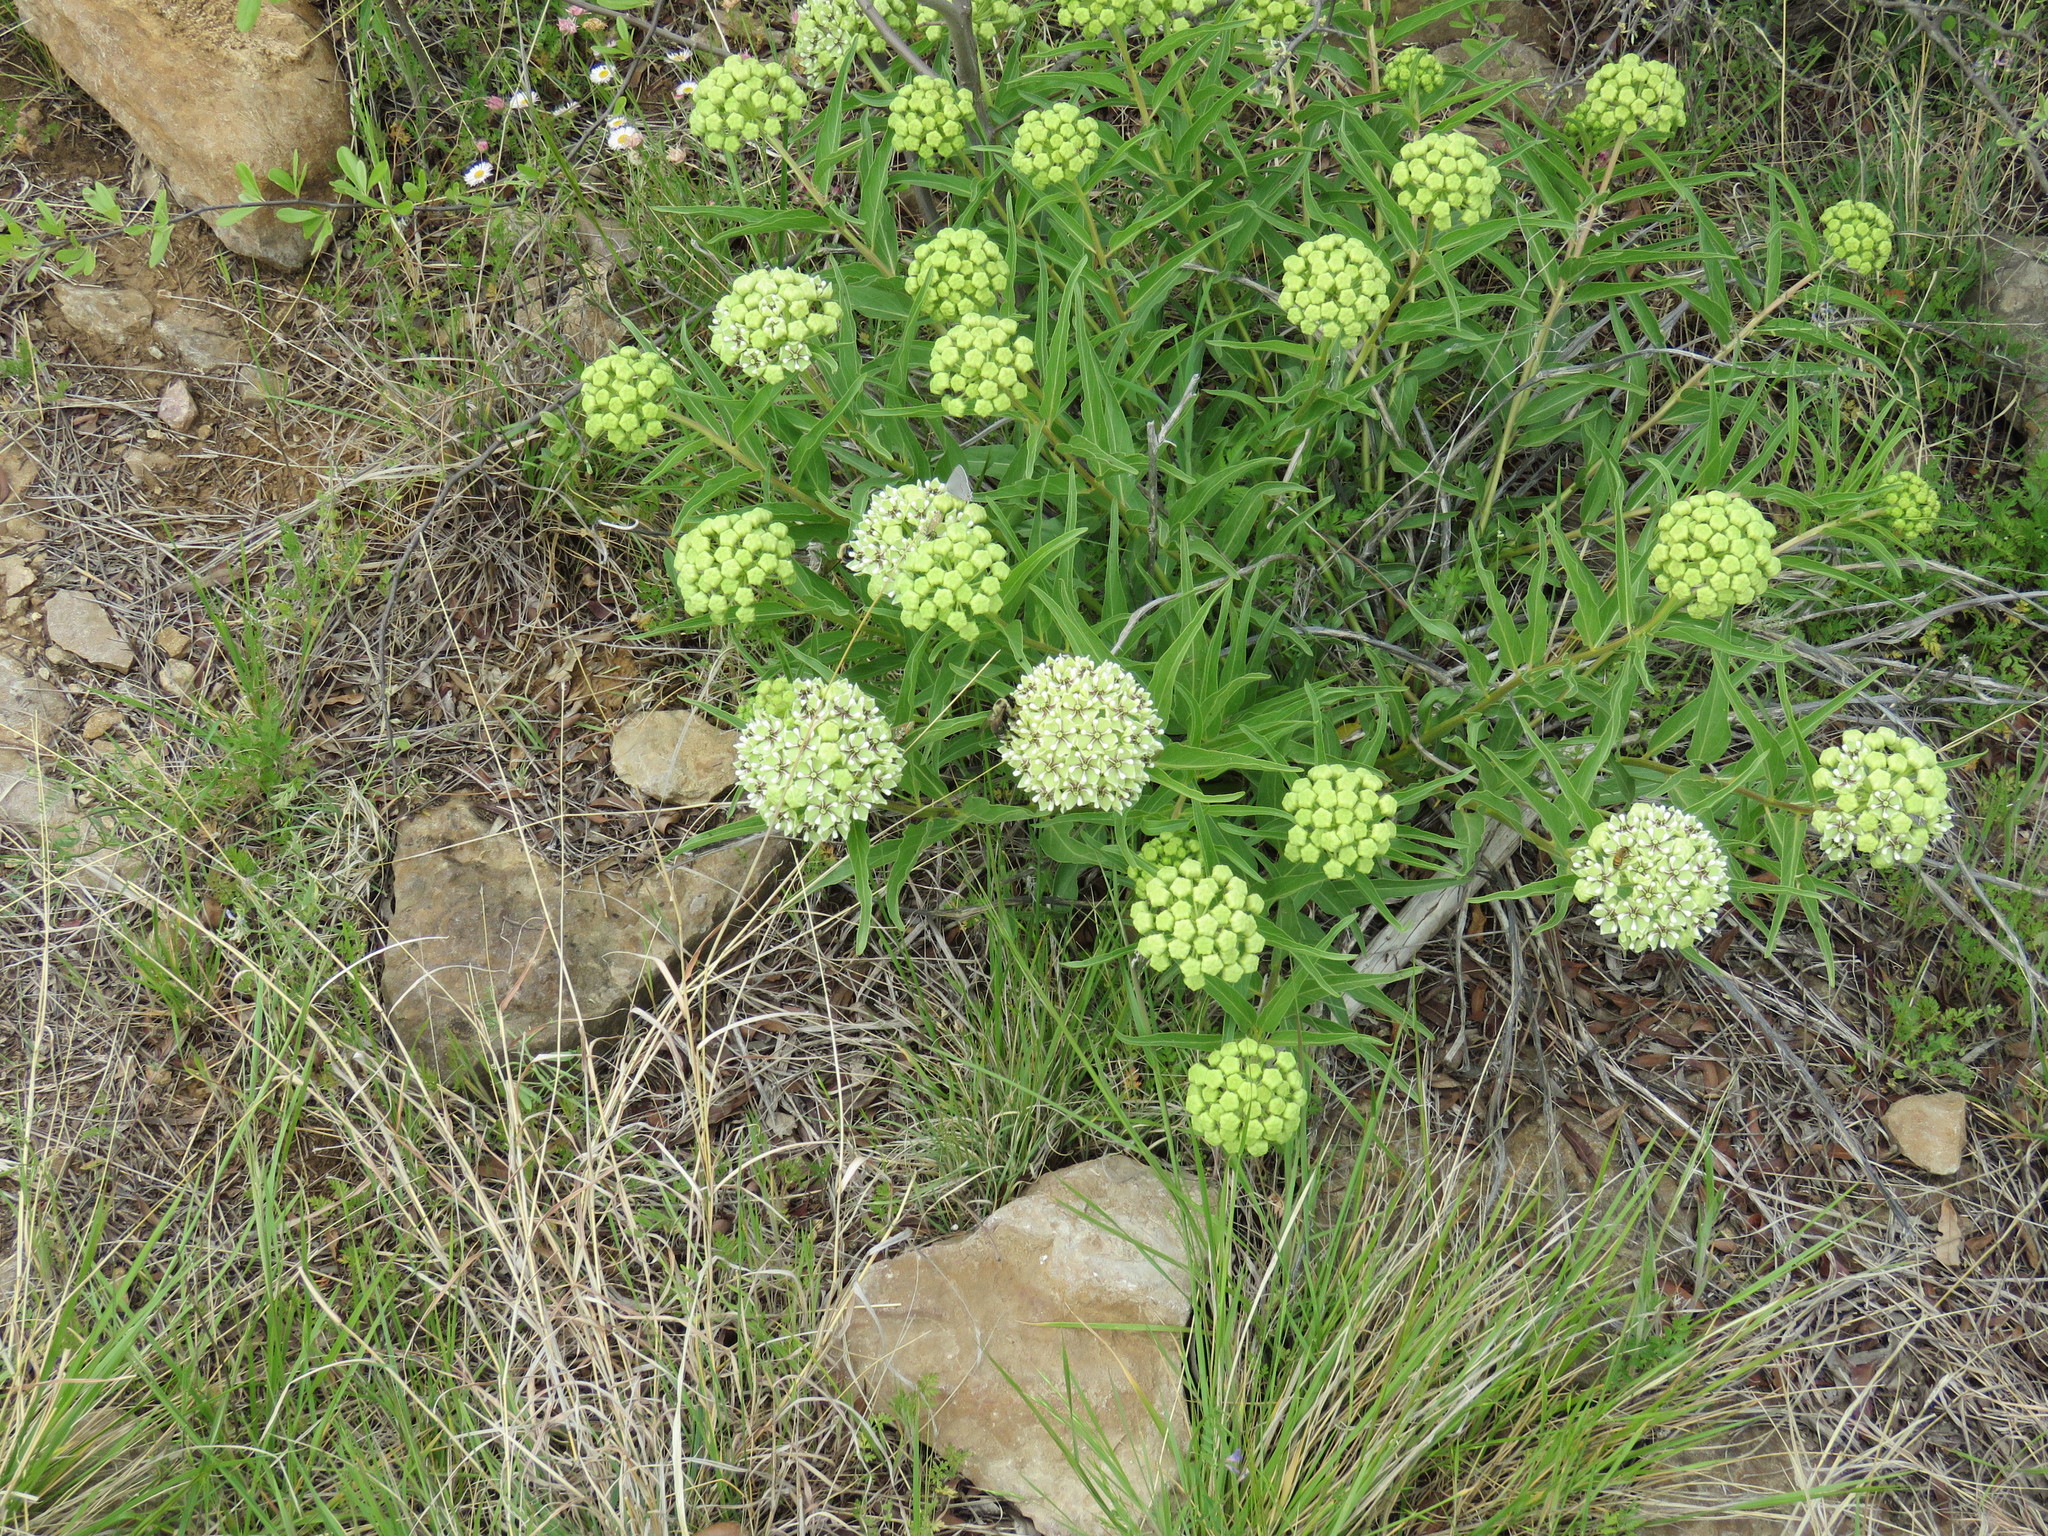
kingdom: Plantae
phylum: Tracheophyta
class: Magnoliopsida
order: Gentianales
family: Apocynaceae
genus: Asclepias
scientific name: Asclepias asperula
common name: Antelope horns
